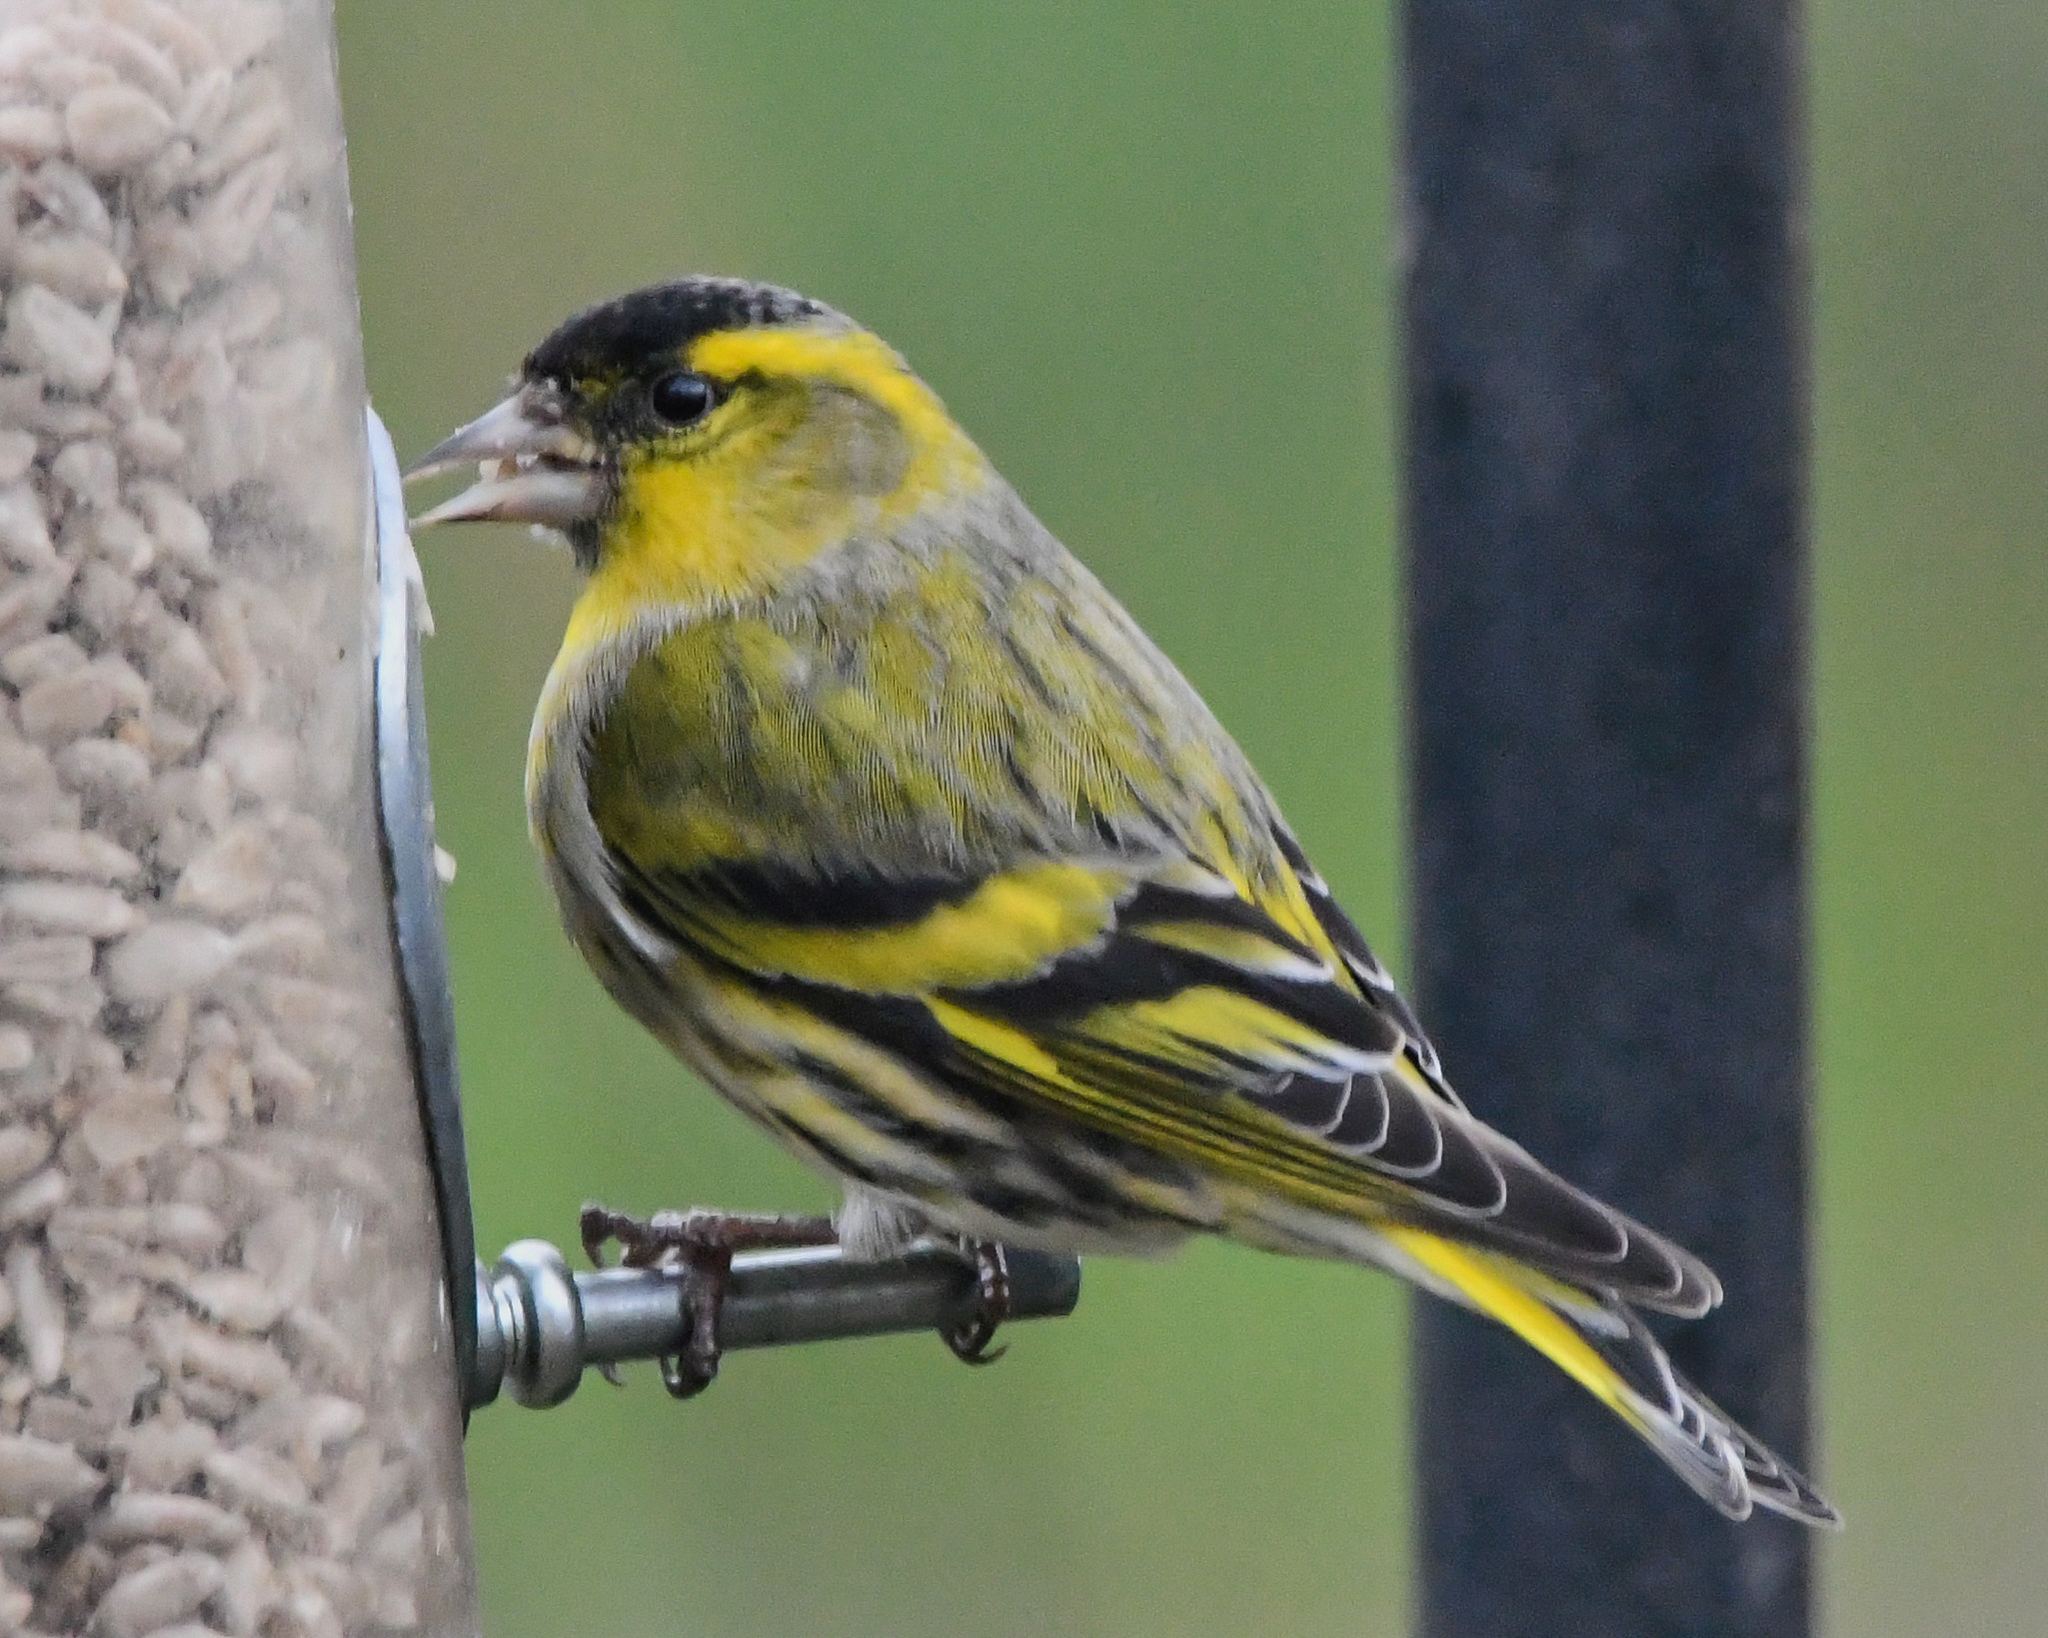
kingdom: Animalia
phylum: Chordata
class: Aves
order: Passeriformes
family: Fringillidae
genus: Spinus
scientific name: Spinus spinus
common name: Eurasian siskin
